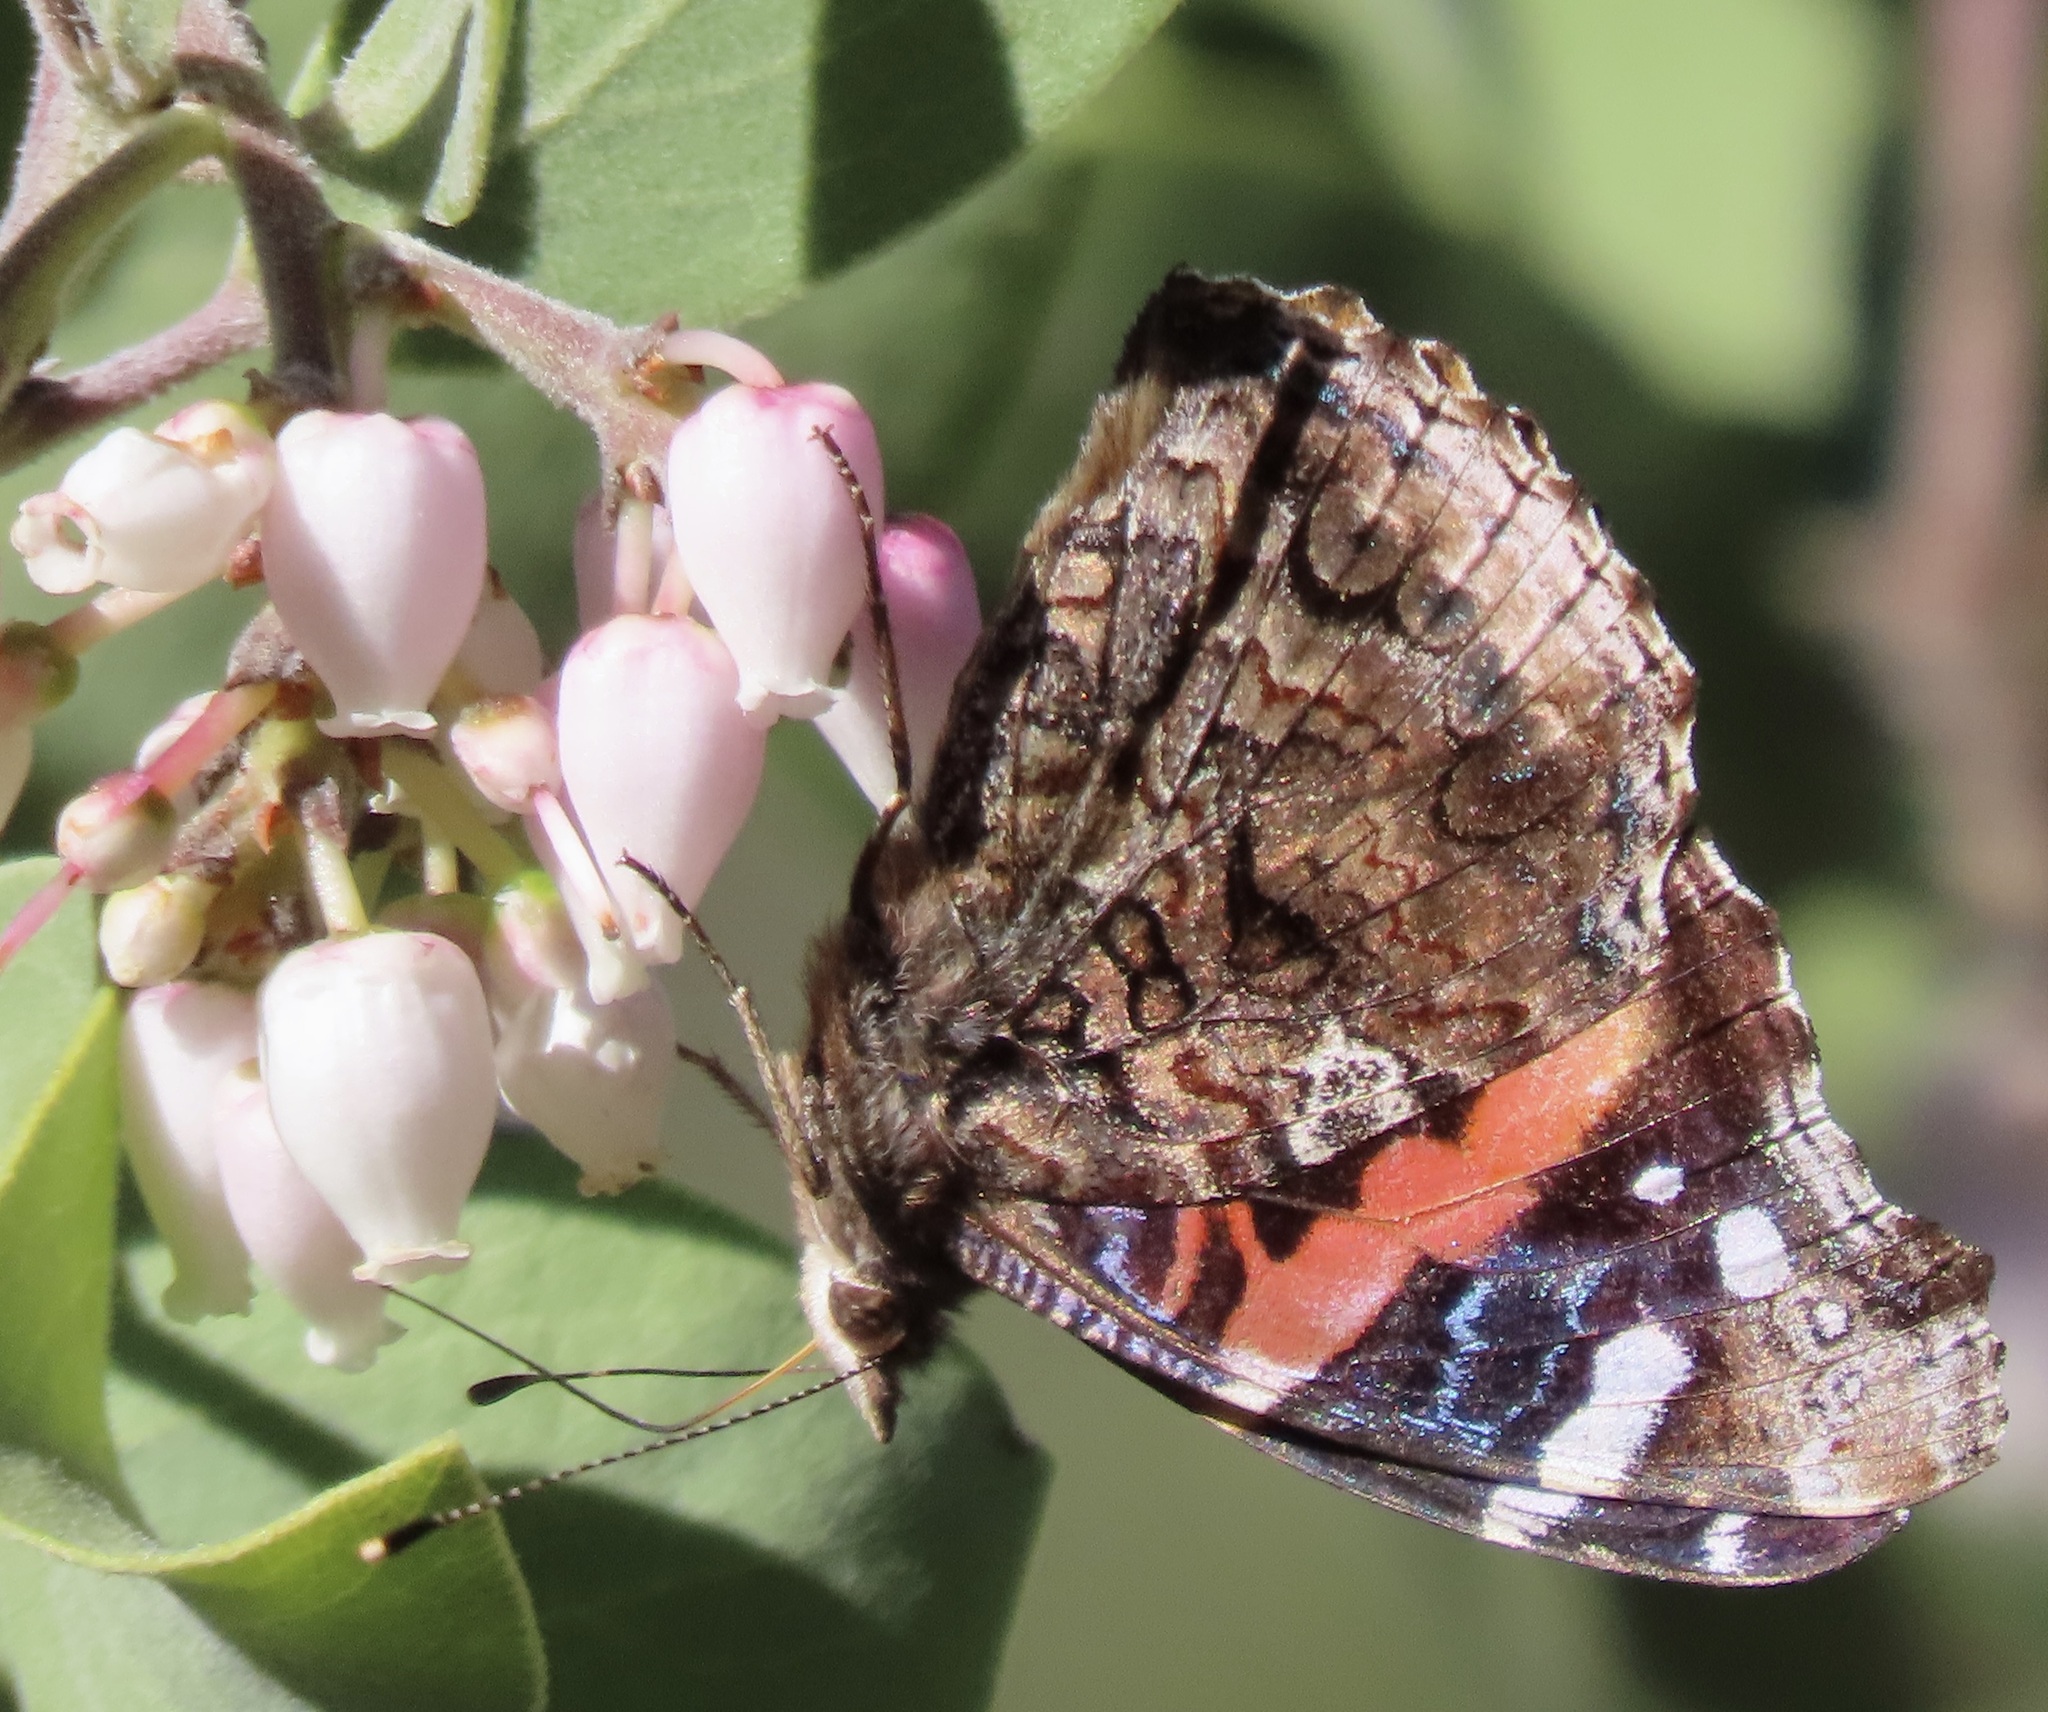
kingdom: Animalia
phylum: Arthropoda
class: Insecta
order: Lepidoptera
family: Nymphalidae
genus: Vanessa
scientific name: Vanessa atalanta
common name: Red admiral
